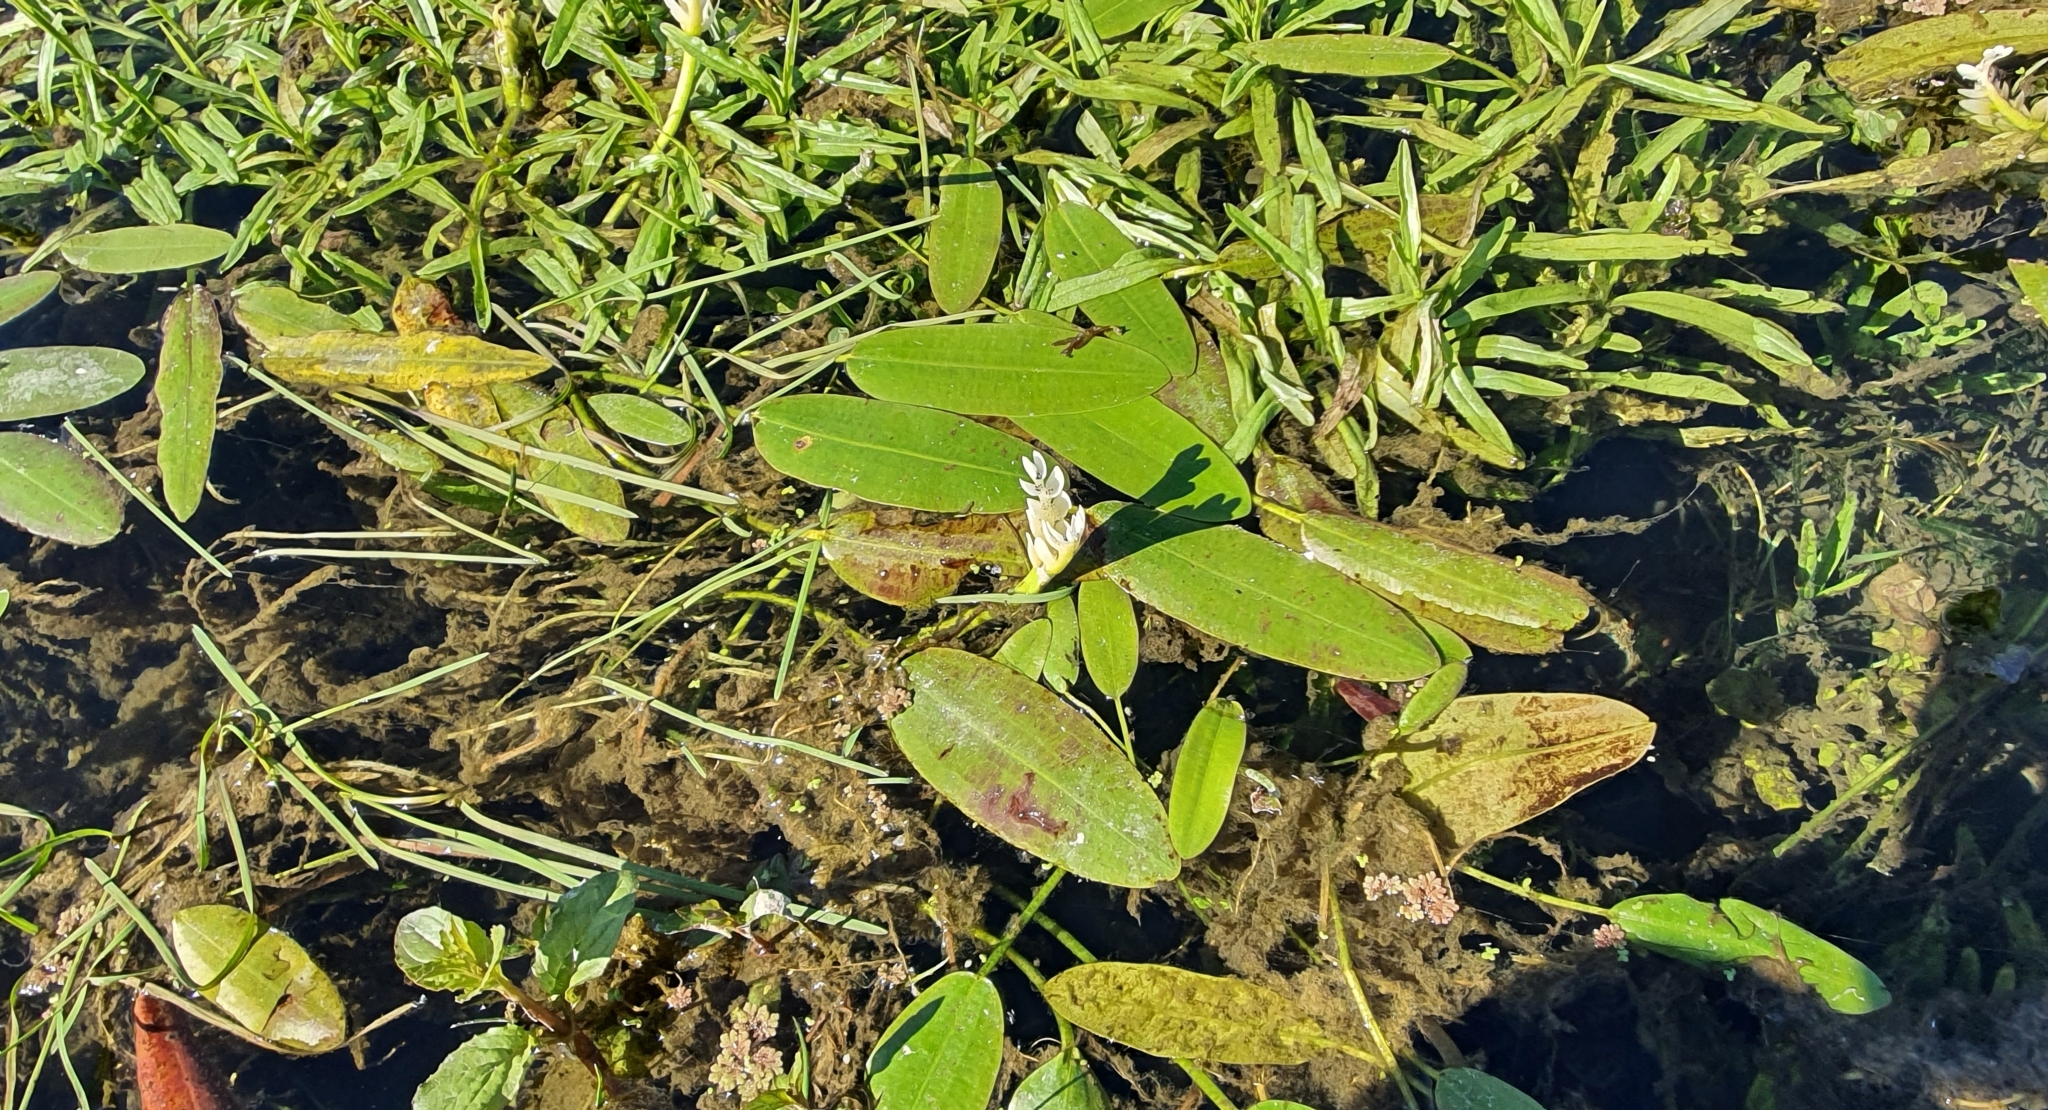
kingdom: Plantae
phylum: Tracheophyta
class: Liliopsida
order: Alismatales
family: Aponogetonaceae
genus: Aponogeton
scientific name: Aponogeton distachyos
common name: Cape-pondweed
